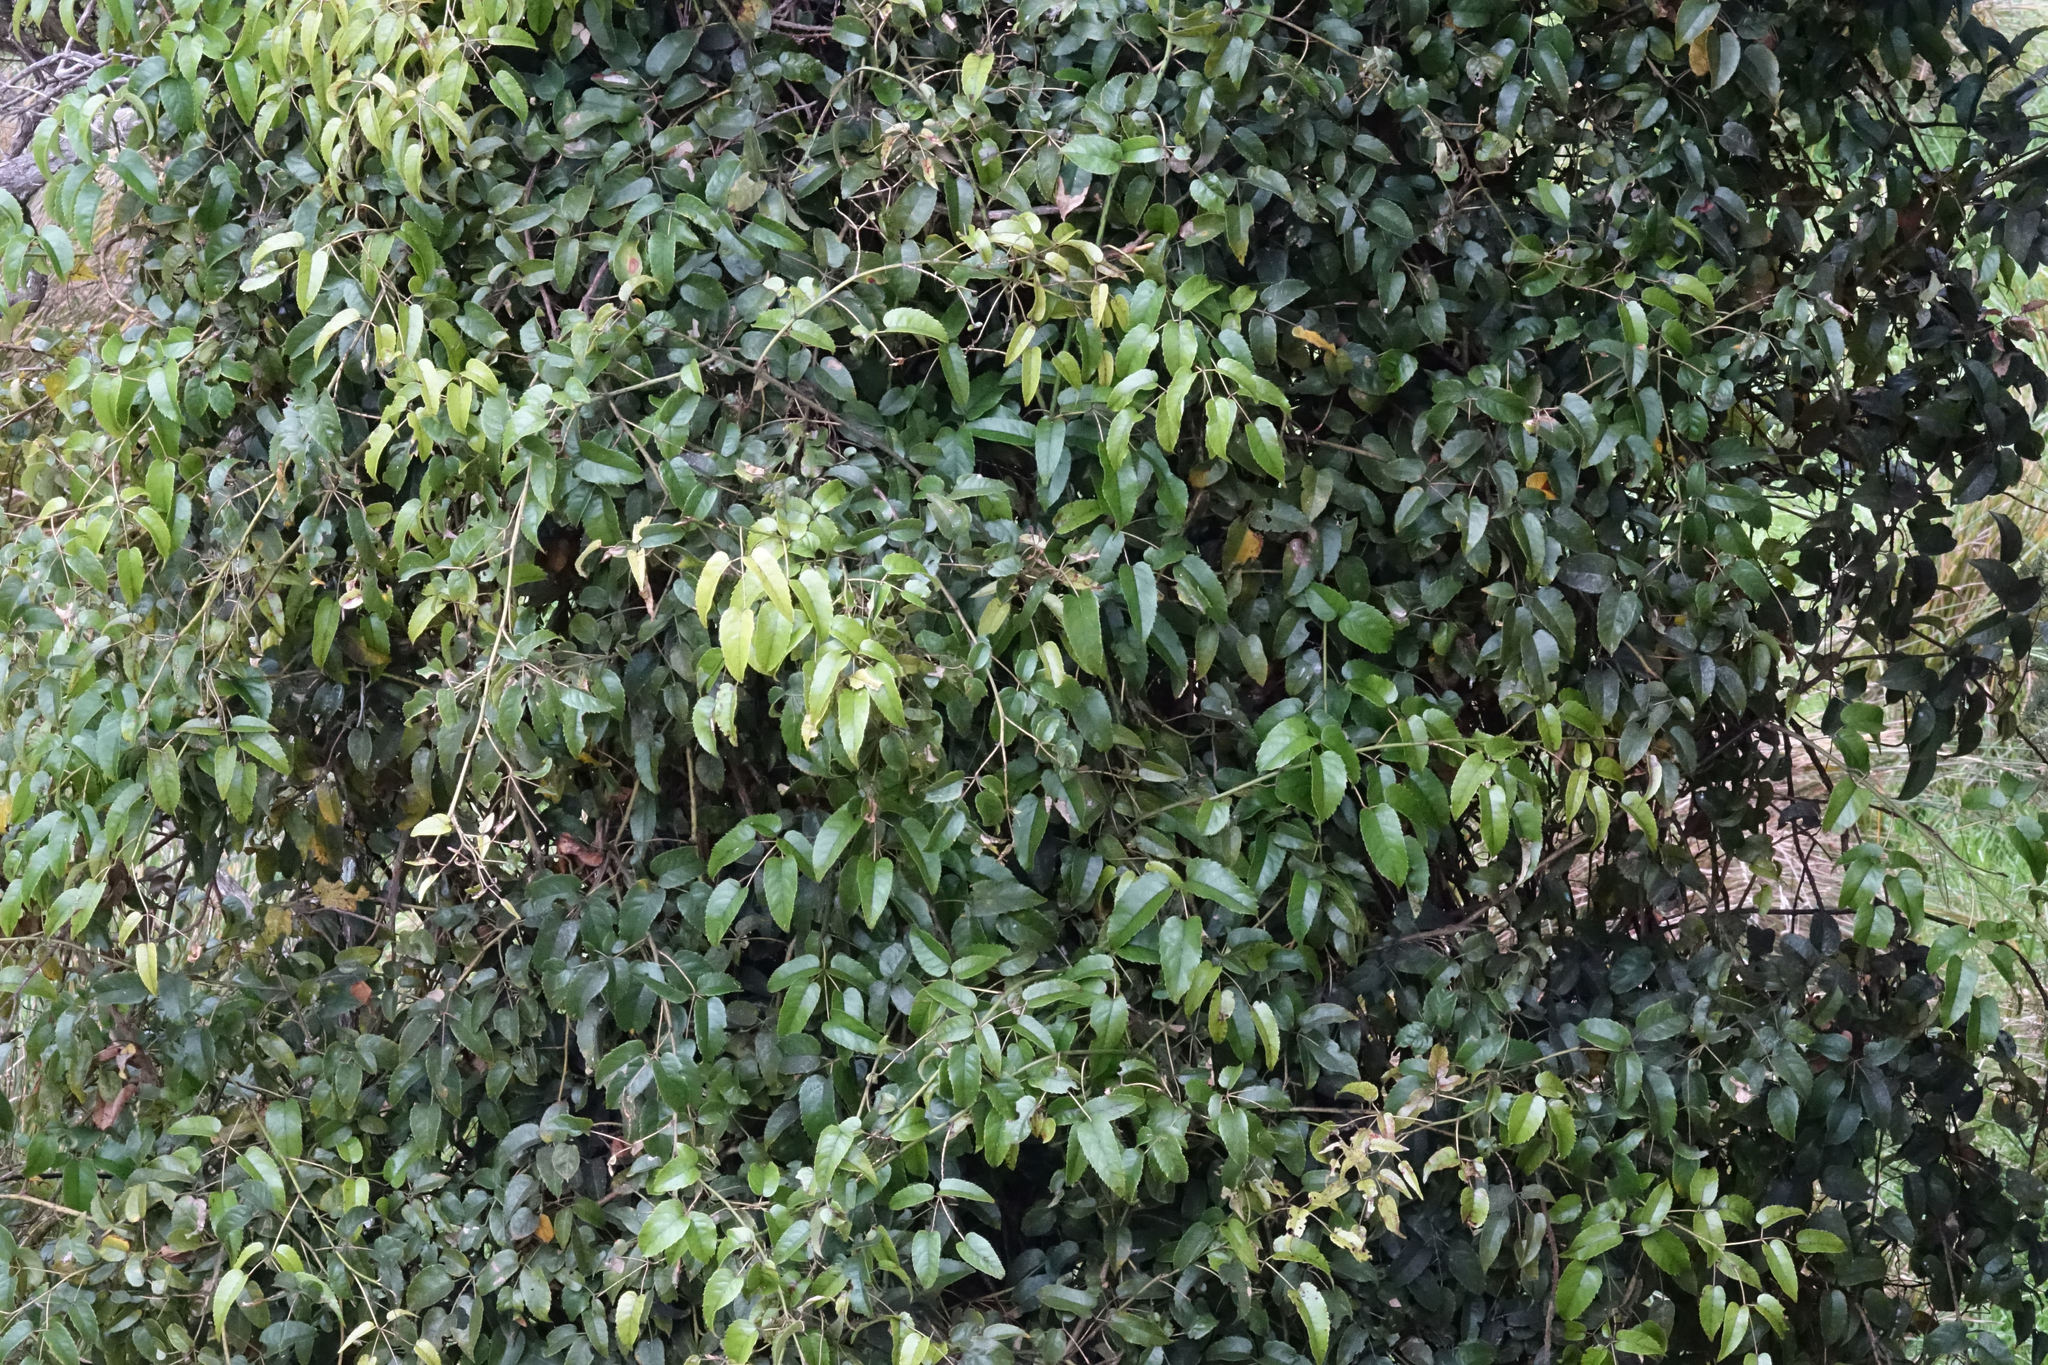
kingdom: Plantae
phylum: Tracheophyta
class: Magnoliopsida
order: Rosales
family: Rosaceae
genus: Rubus
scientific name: Rubus cissoides
